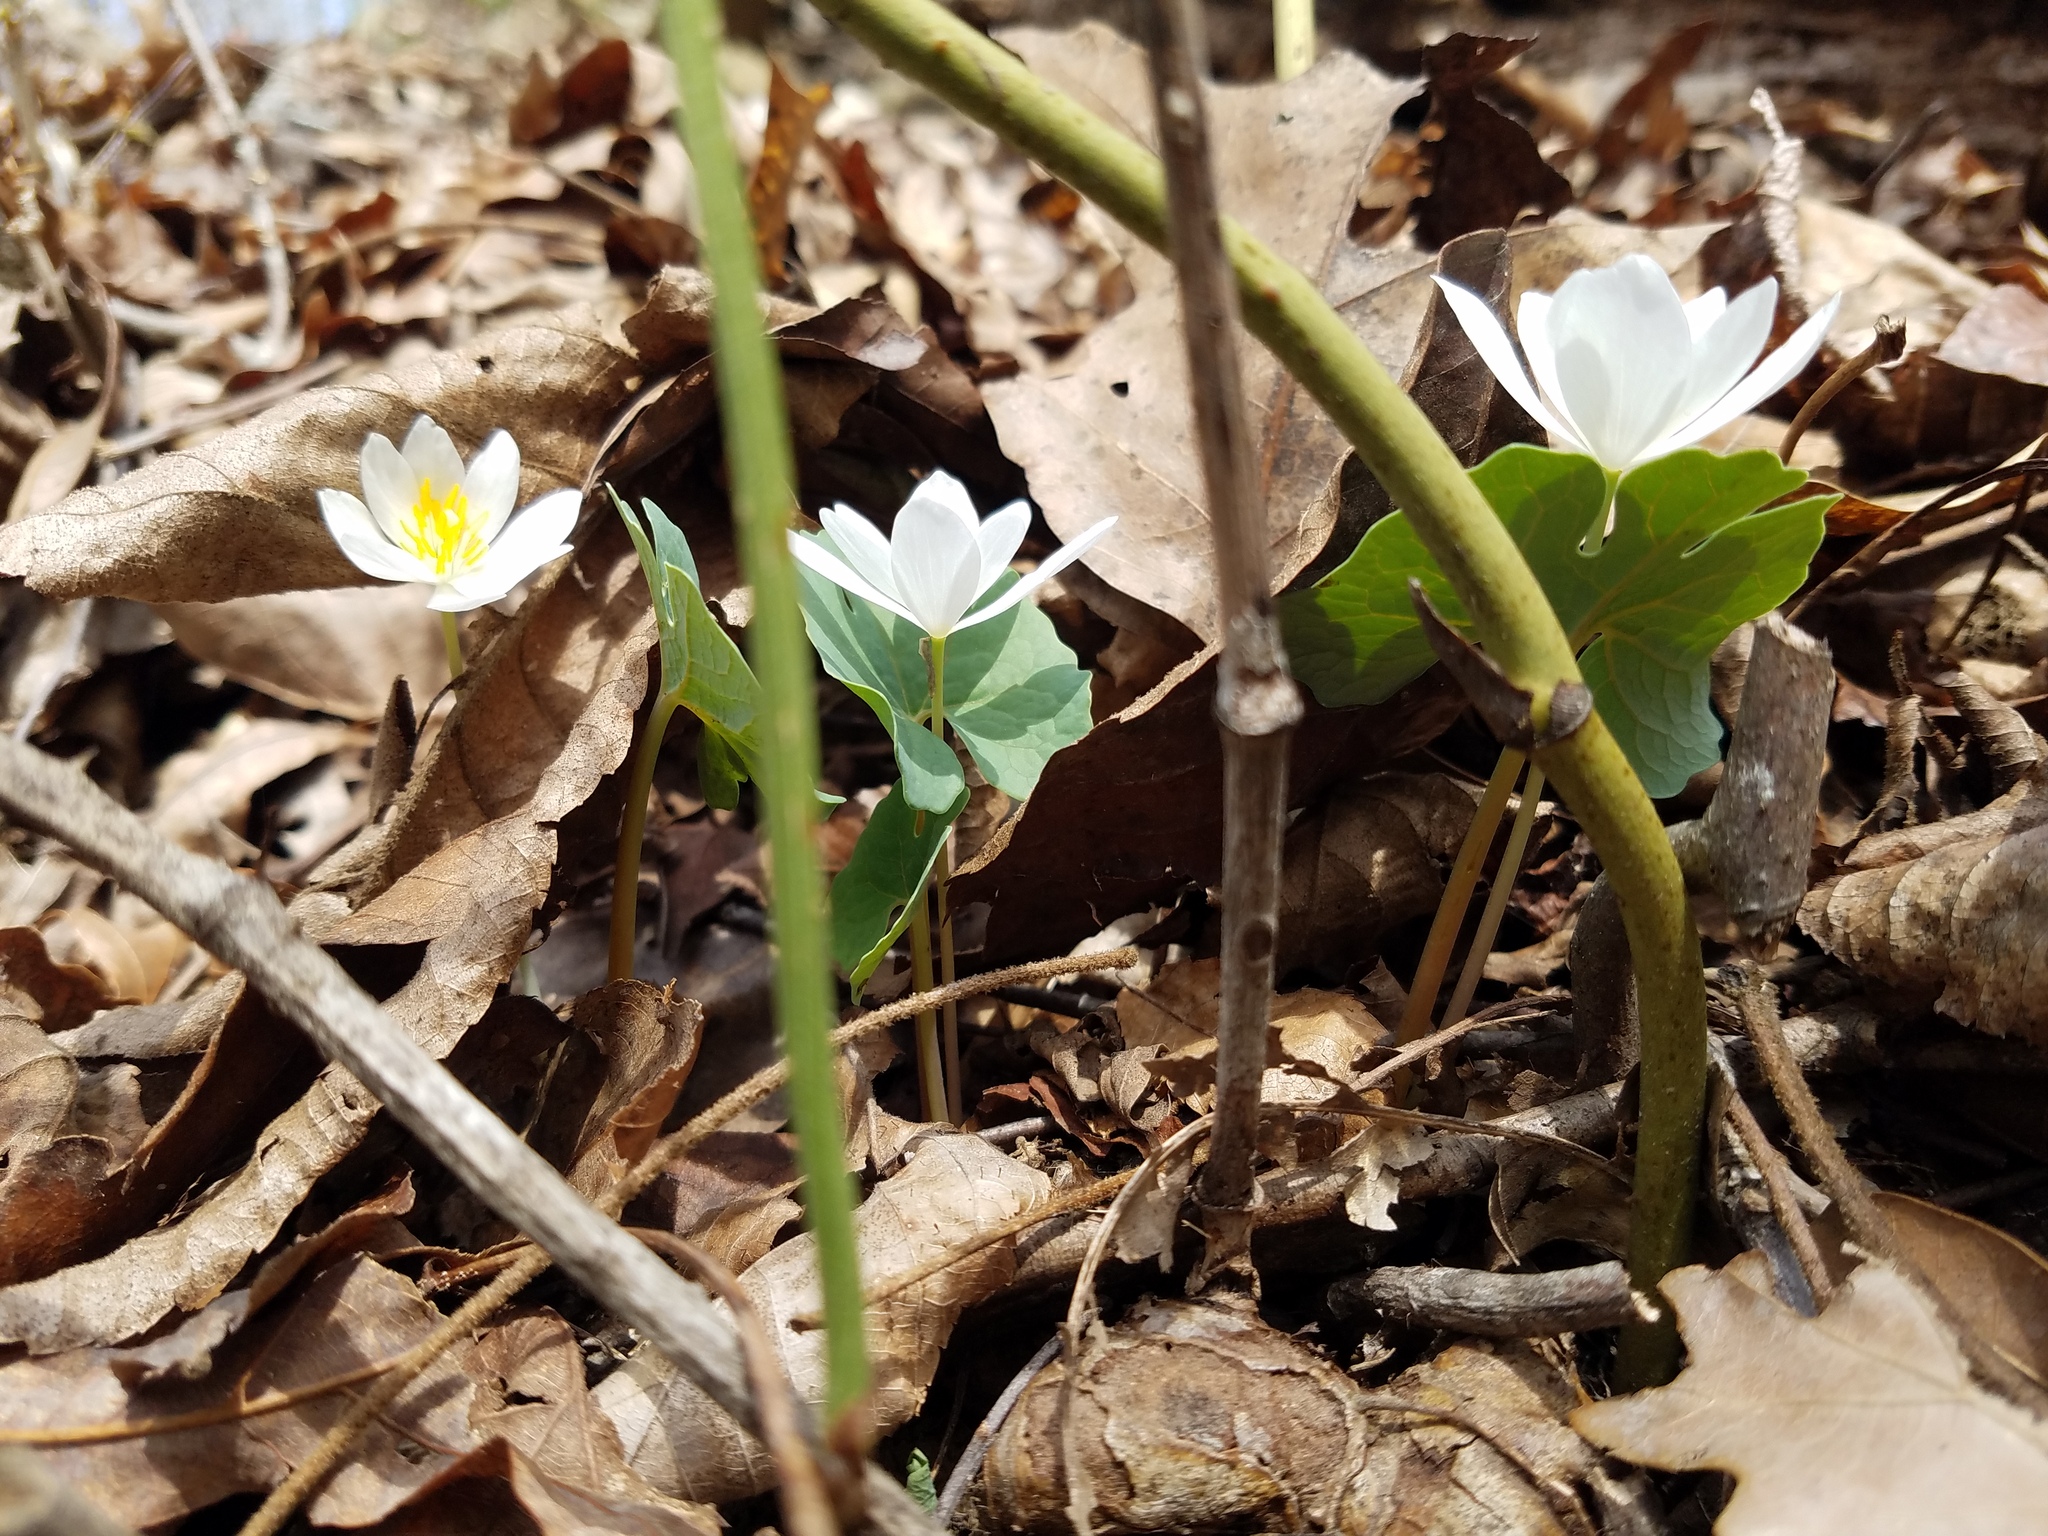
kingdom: Plantae
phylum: Tracheophyta
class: Magnoliopsida
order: Ranunculales
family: Papaveraceae
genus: Sanguinaria
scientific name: Sanguinaria canadensis
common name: Bloodroot
